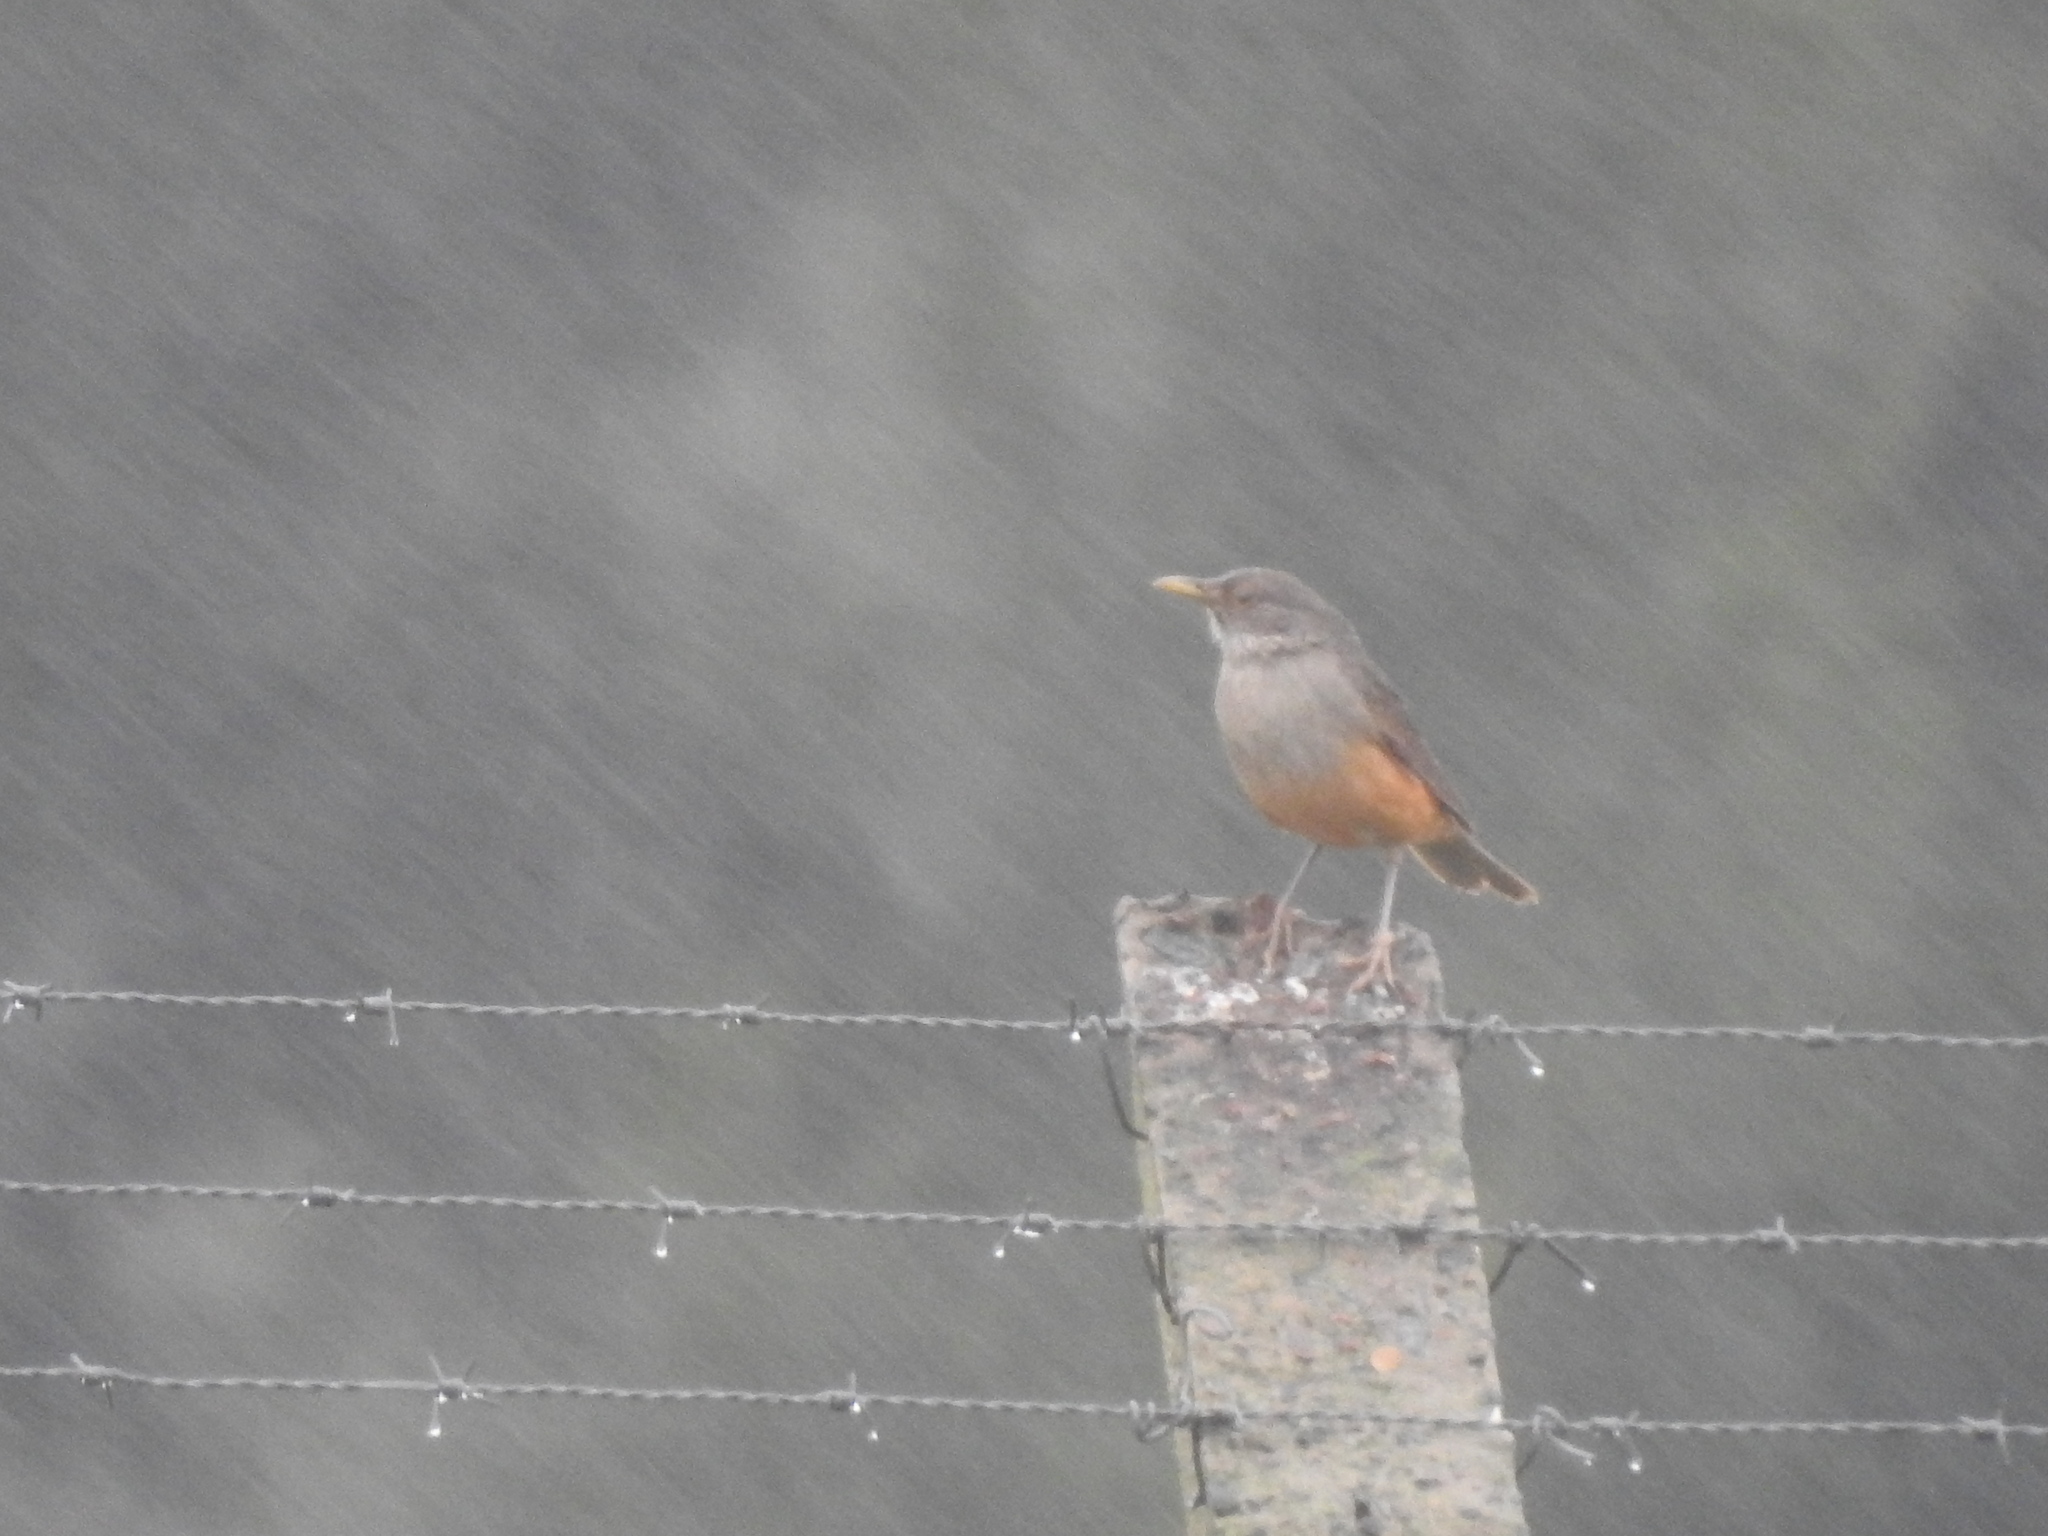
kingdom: Animalia
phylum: Chordata
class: Aves
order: Passeriformes
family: Turdidae
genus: Turdus
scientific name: Turdus rufiventris
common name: Rufous-bellied thrush
